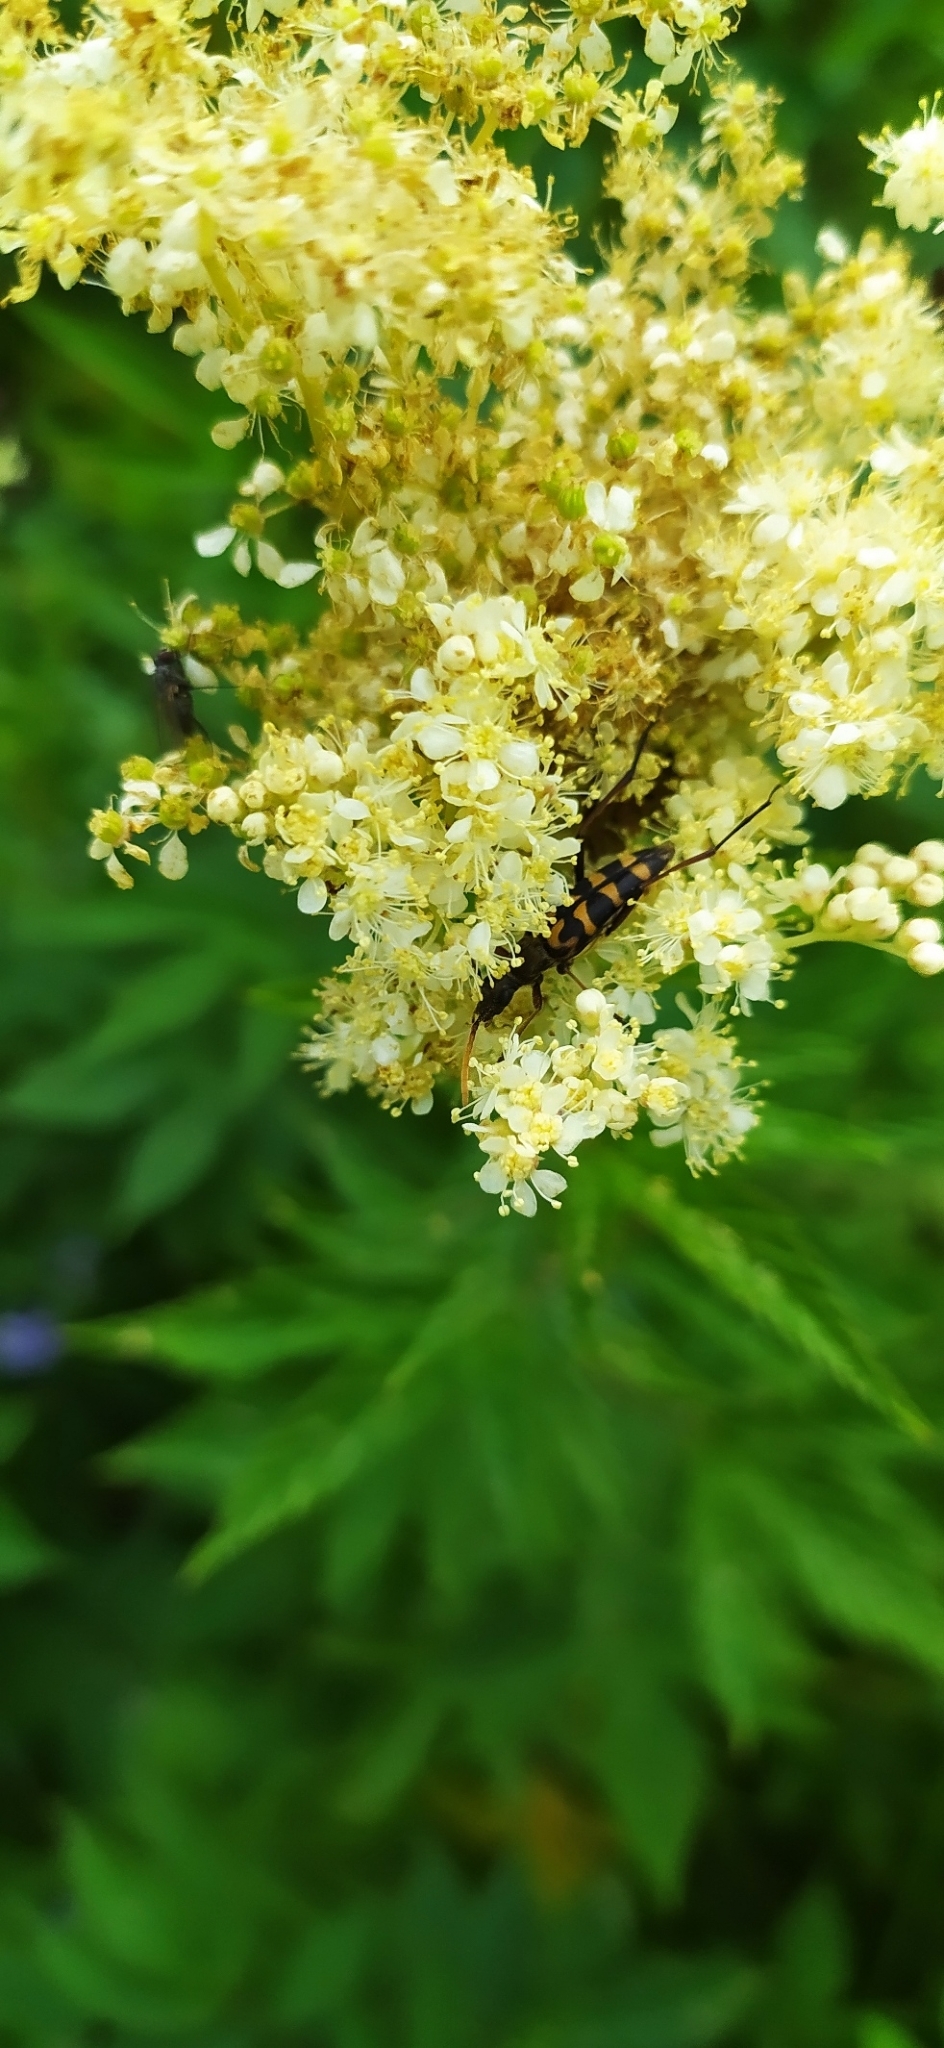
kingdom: Animalia
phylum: Arthropoda
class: Insecta
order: Coleoptera
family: Cerambycidae
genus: Leptura
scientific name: Leptura annularis
